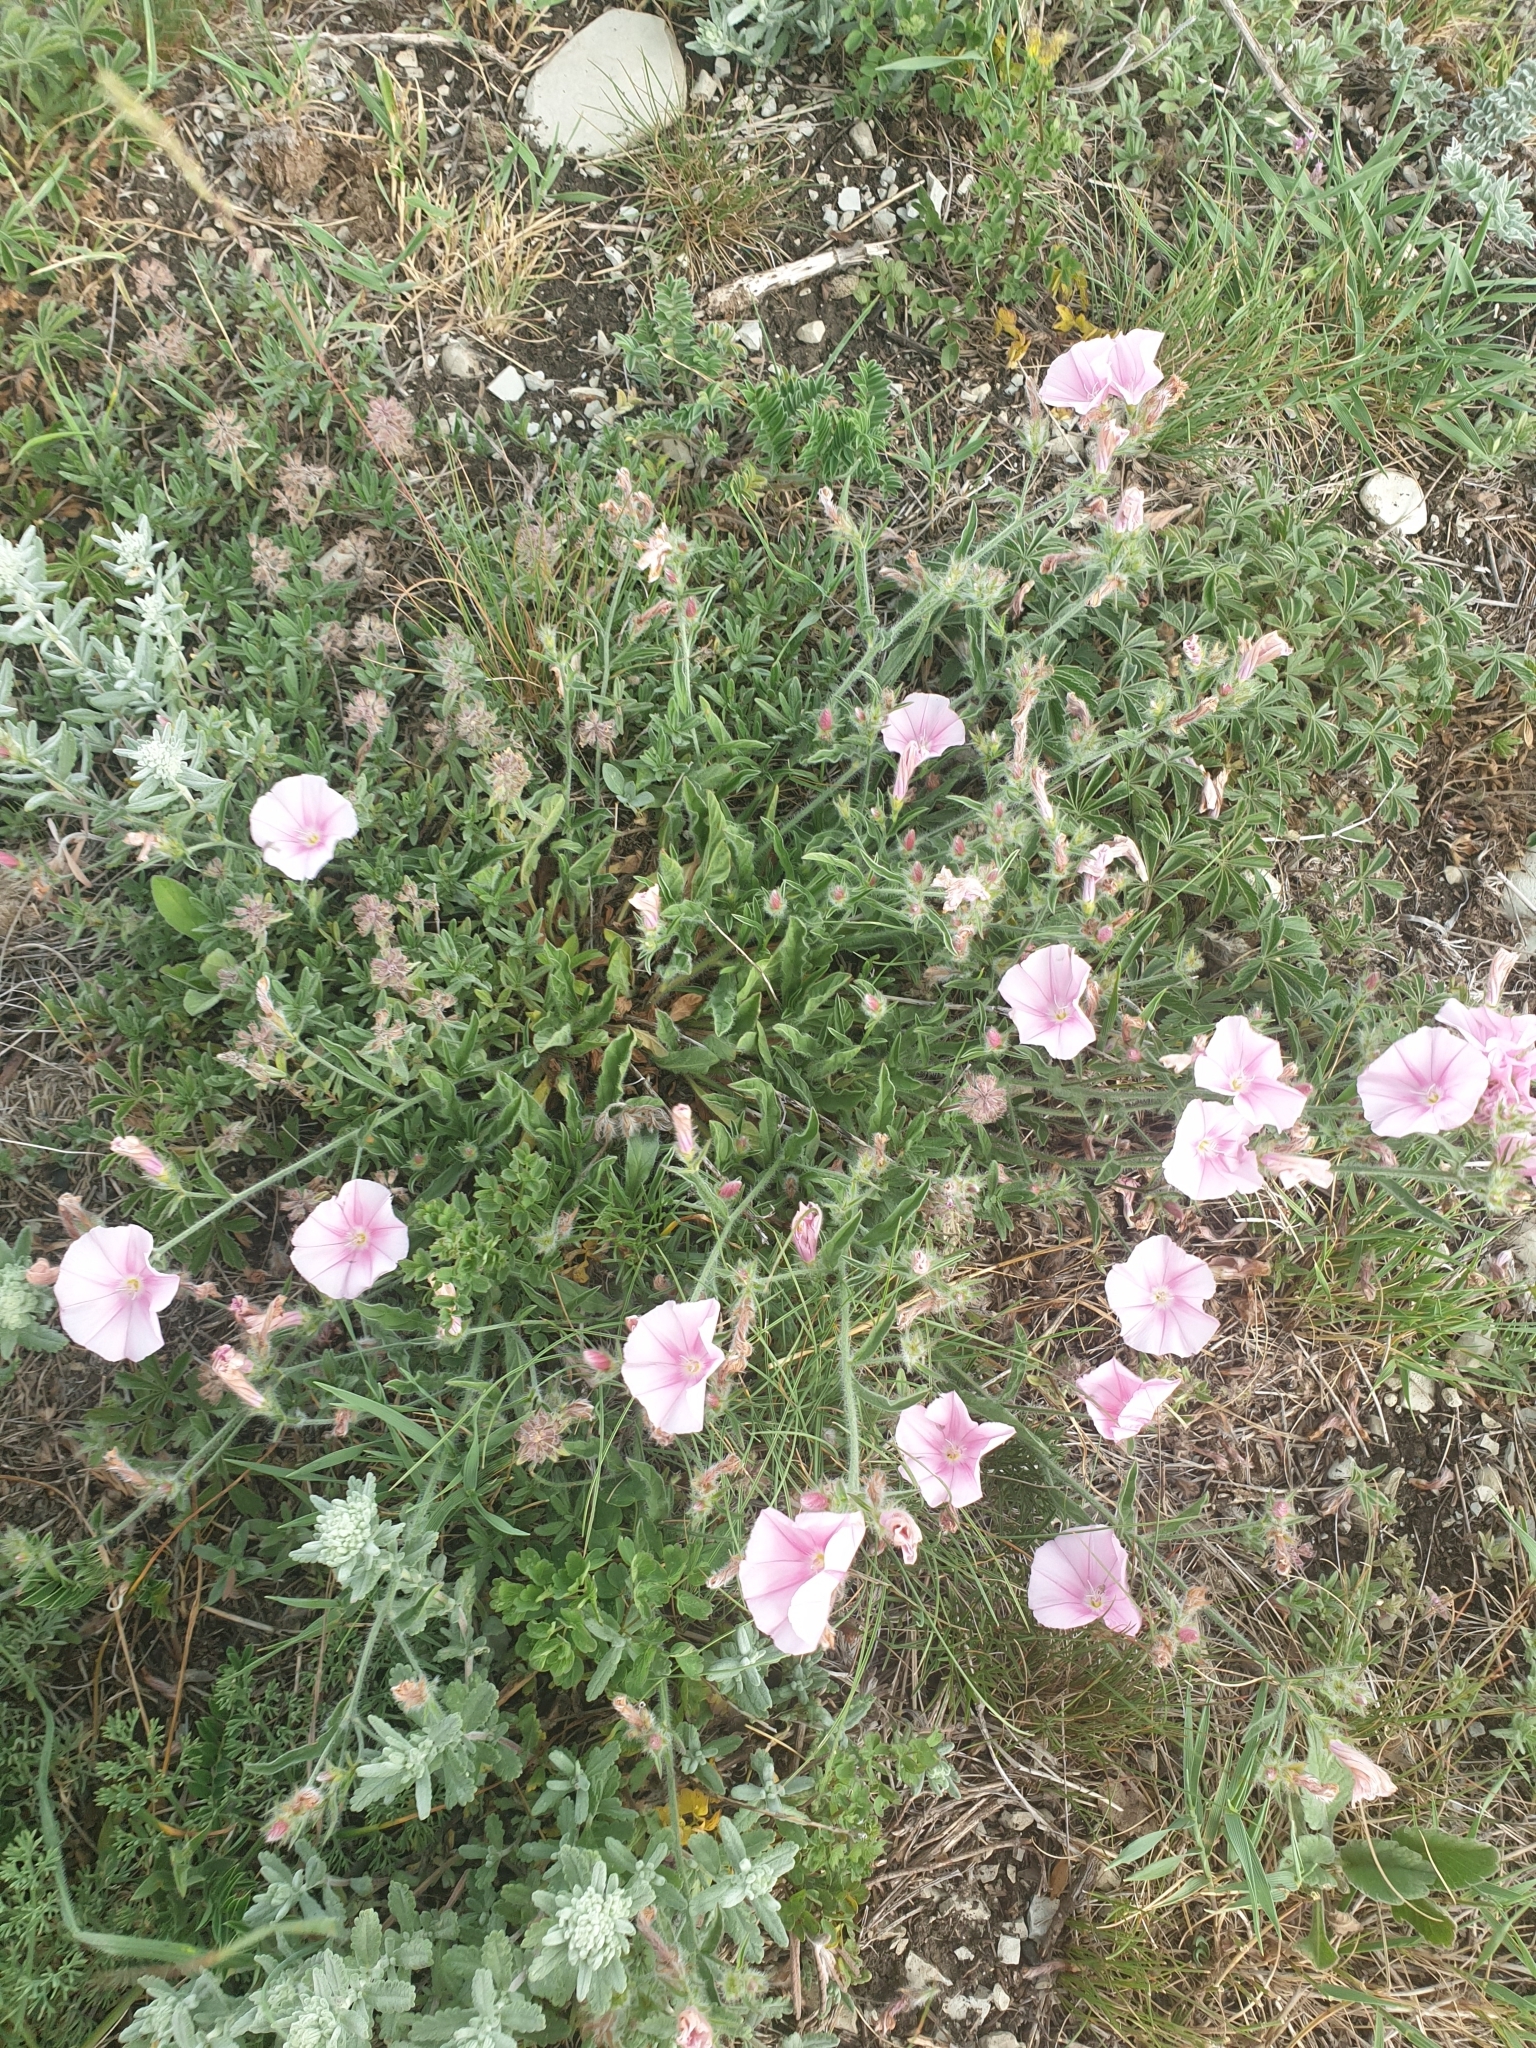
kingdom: Plantae
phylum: Tracheophyta
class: Magnoliopsida
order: Solanales
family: Convolvulaceae
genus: Convolvulus
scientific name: Convolvulus cantabrica
